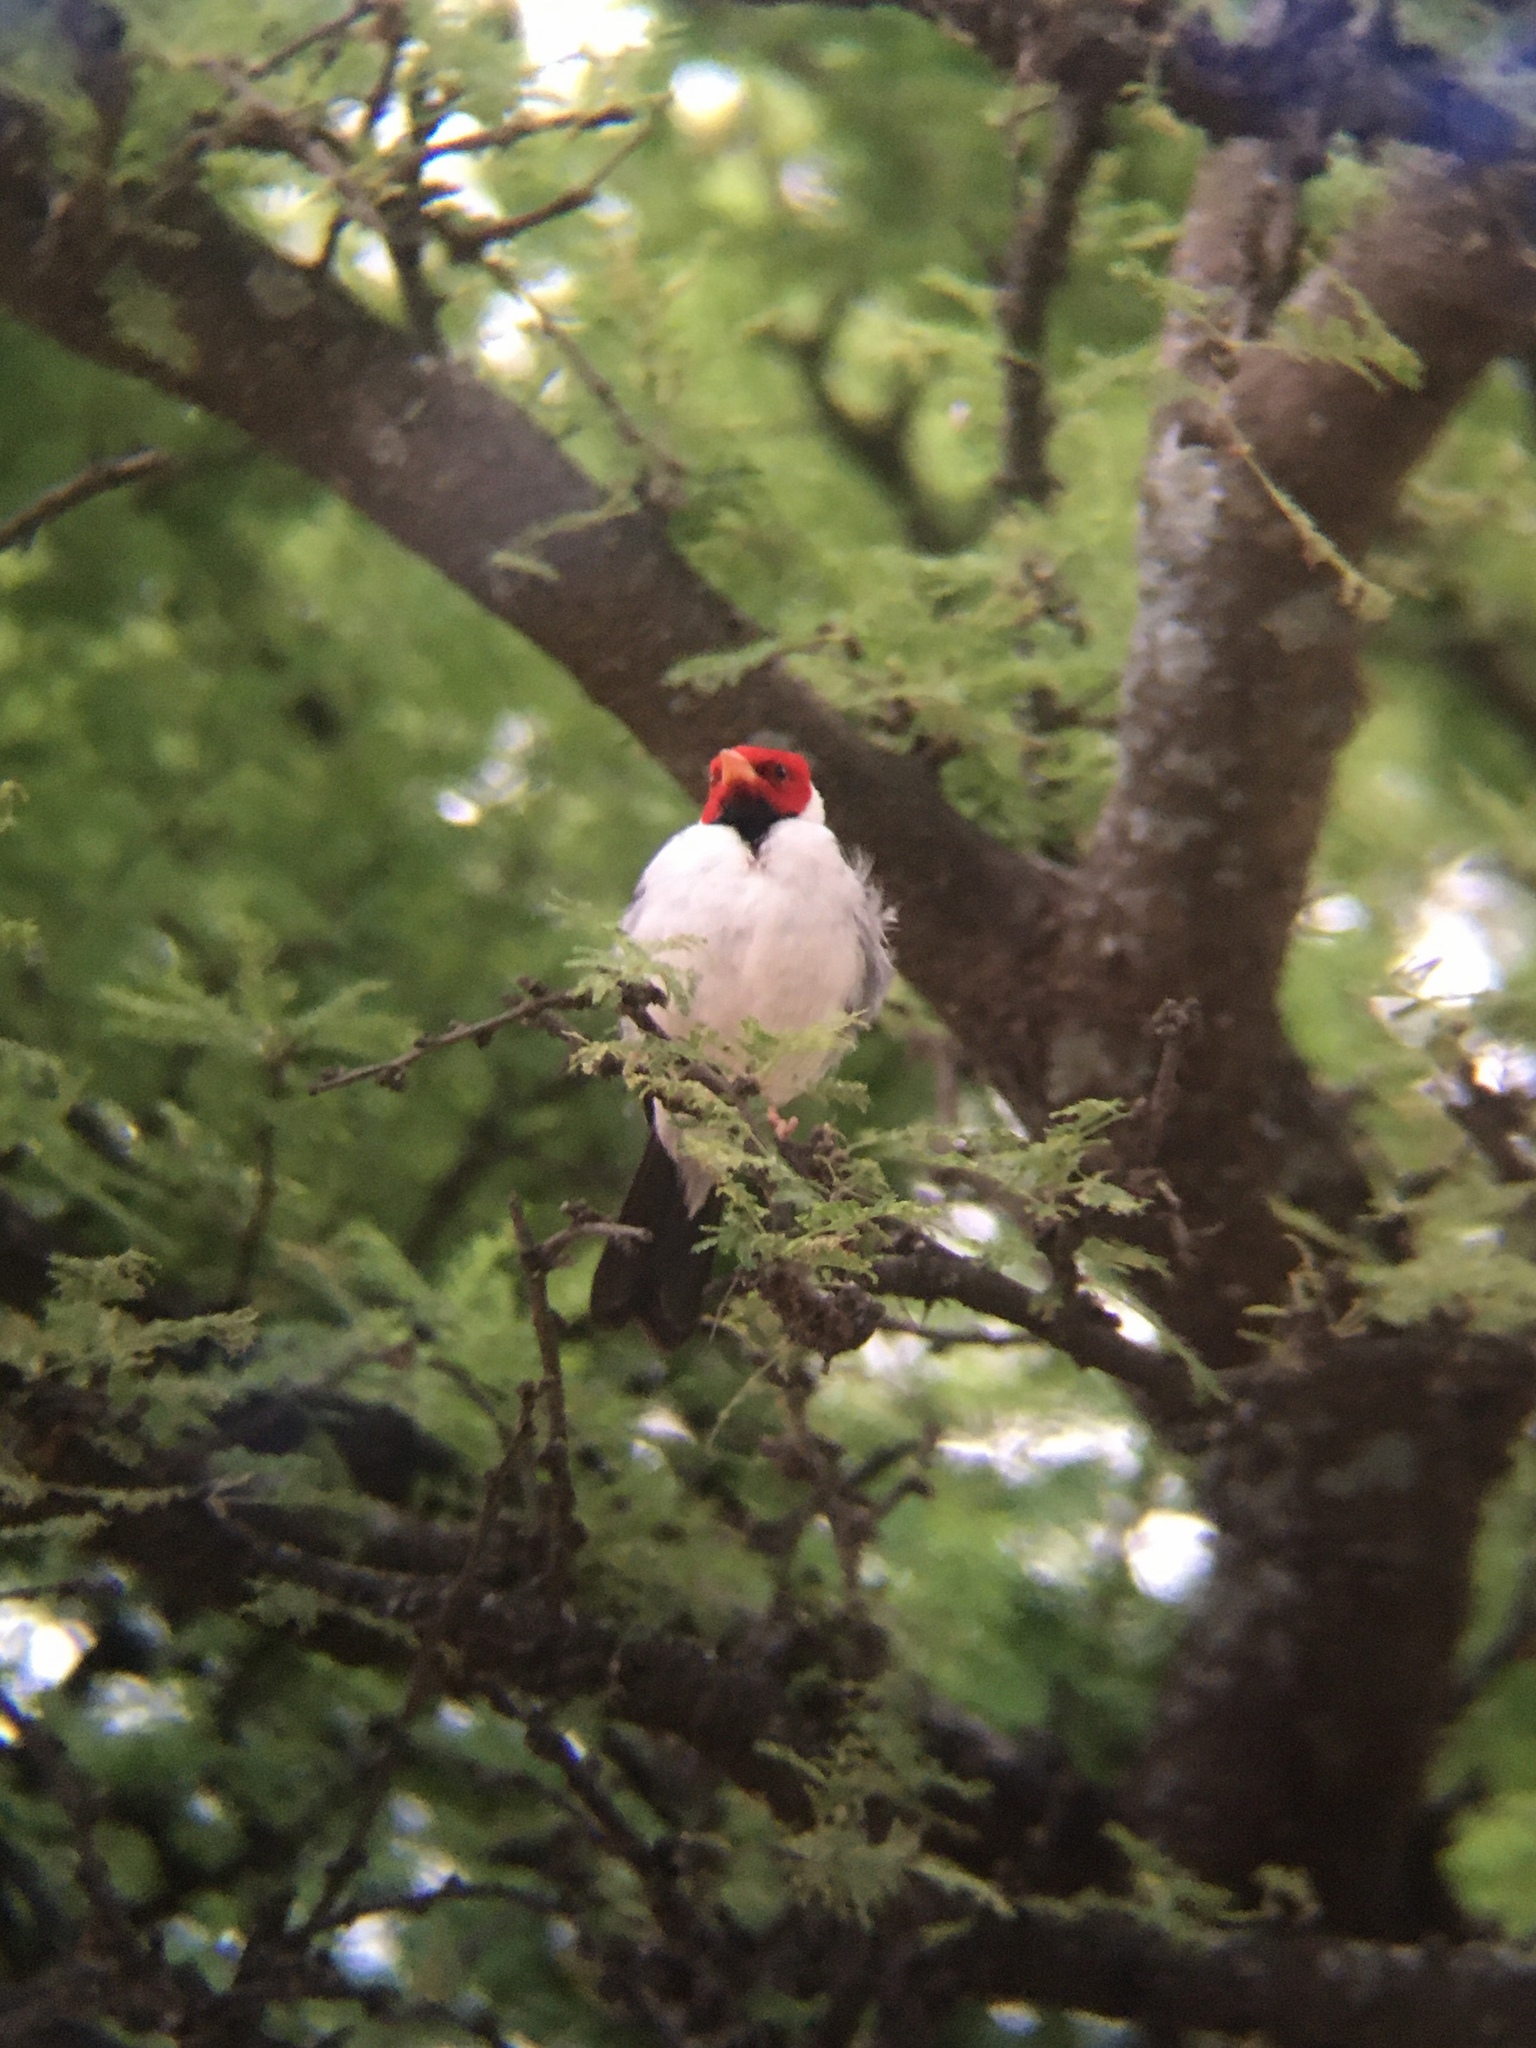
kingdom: Animalia
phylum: Chordata
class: Aves
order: Passeriformes
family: Thraupidae
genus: Paroaria
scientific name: Paroaria capitata
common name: Yellow-billed cardinal
